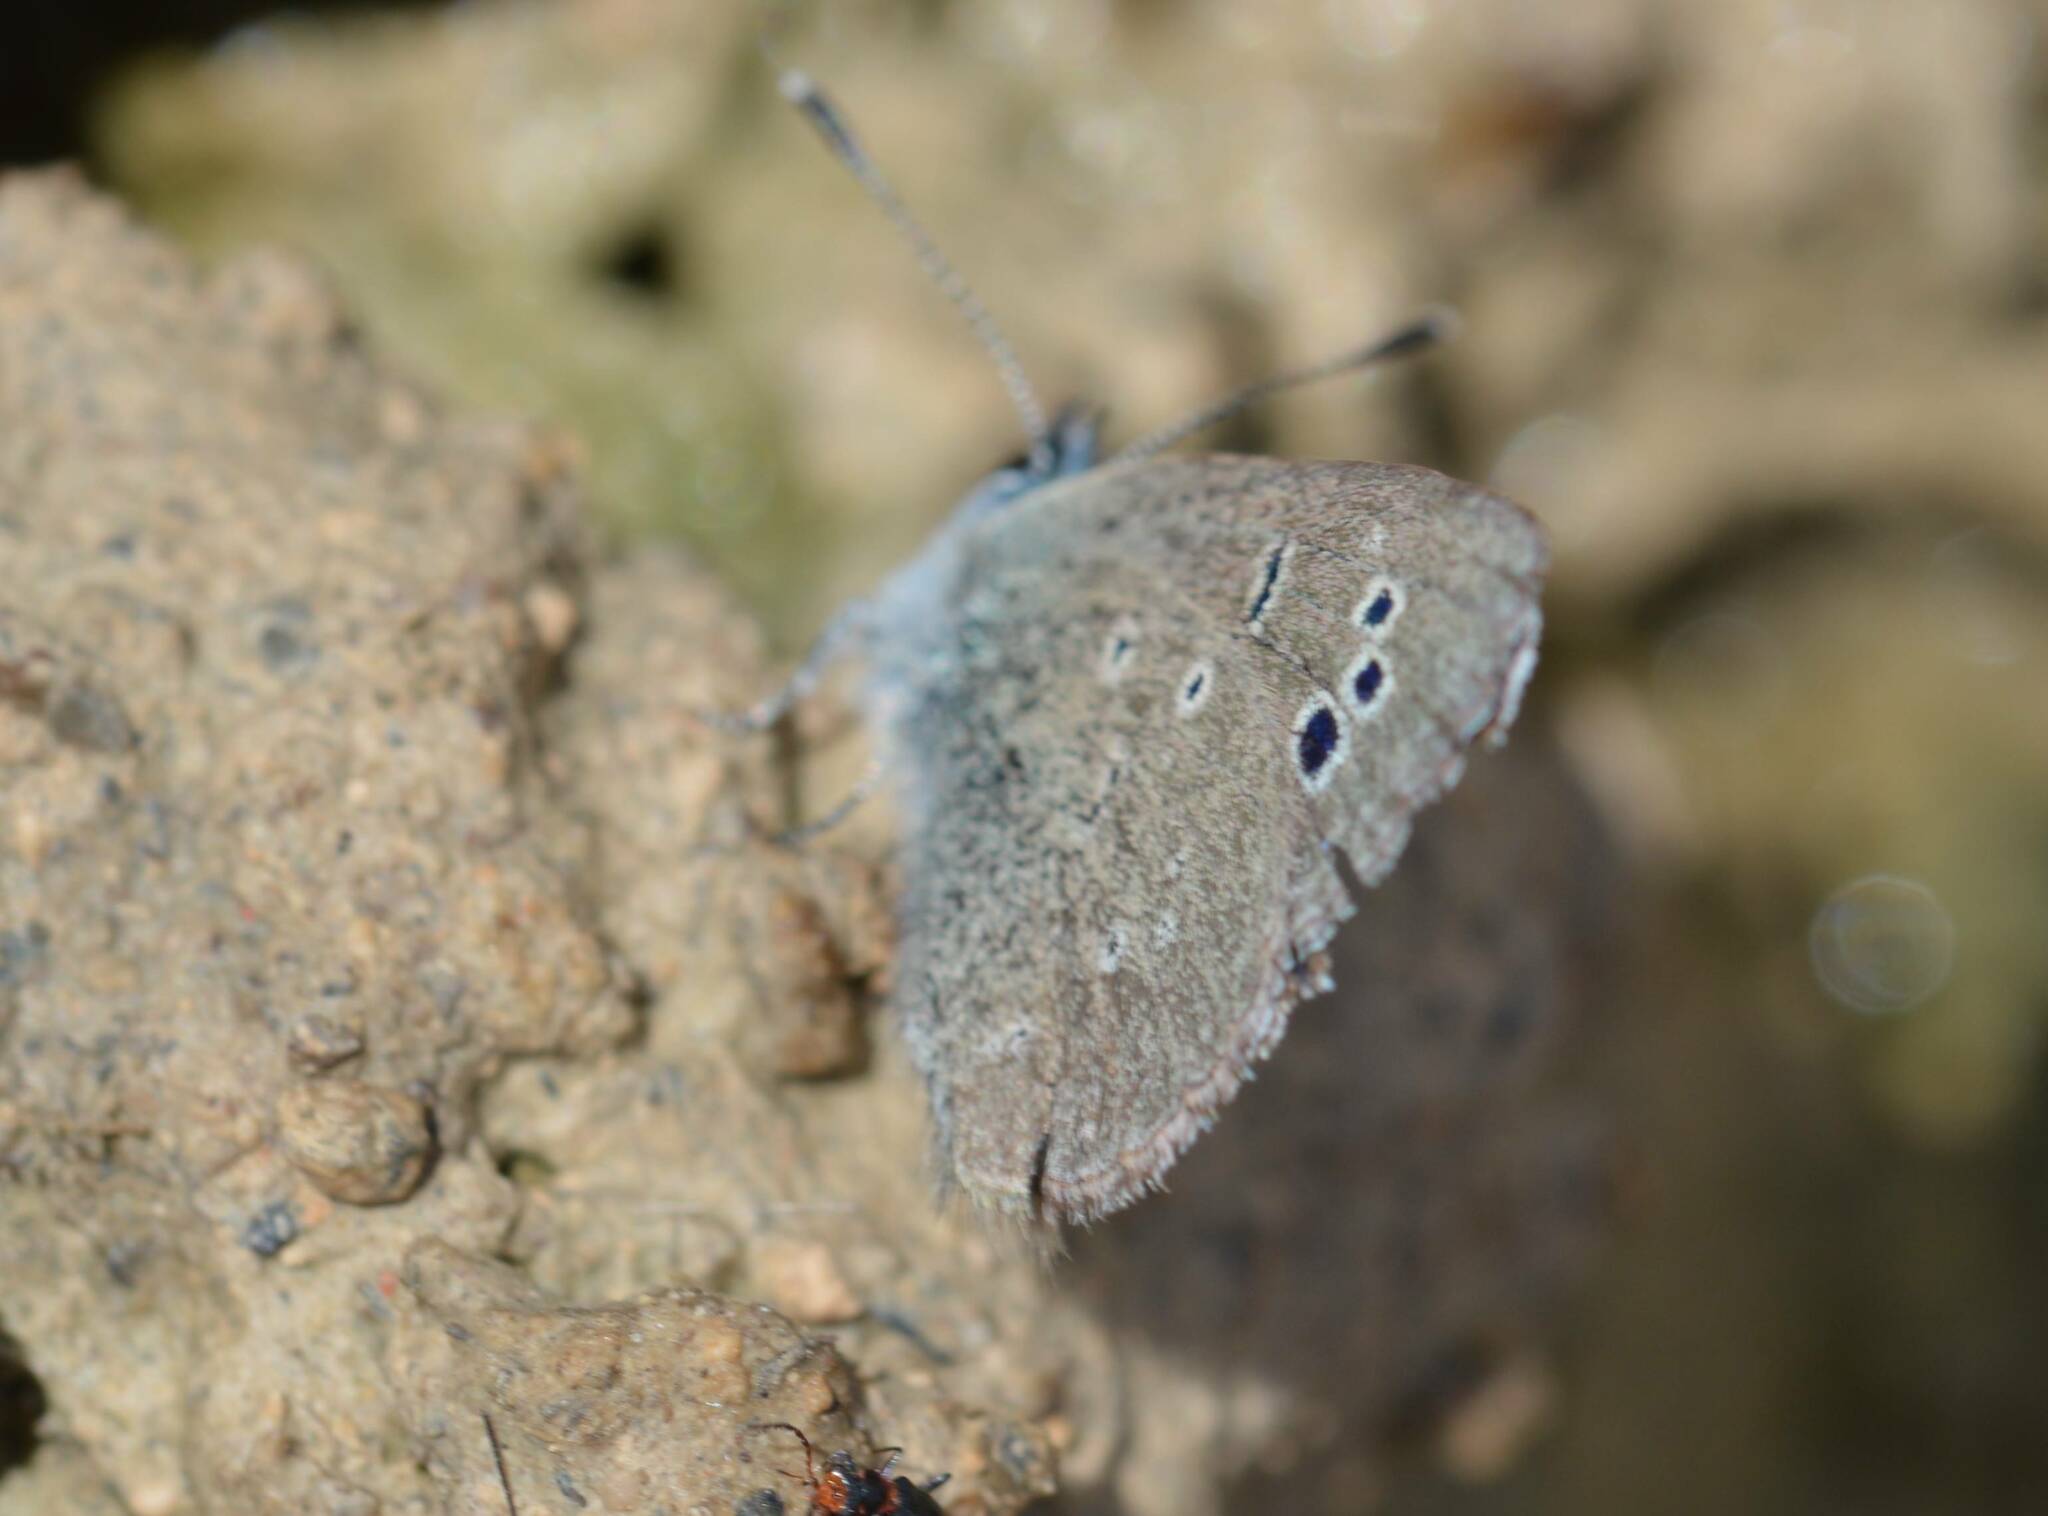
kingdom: Animalia
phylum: Arthropoda
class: Insecta
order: Lepidoptera
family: Lycaenidae
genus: Glaucopsyche
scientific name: Glaucopsyche melanops
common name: Black-eyed blue
